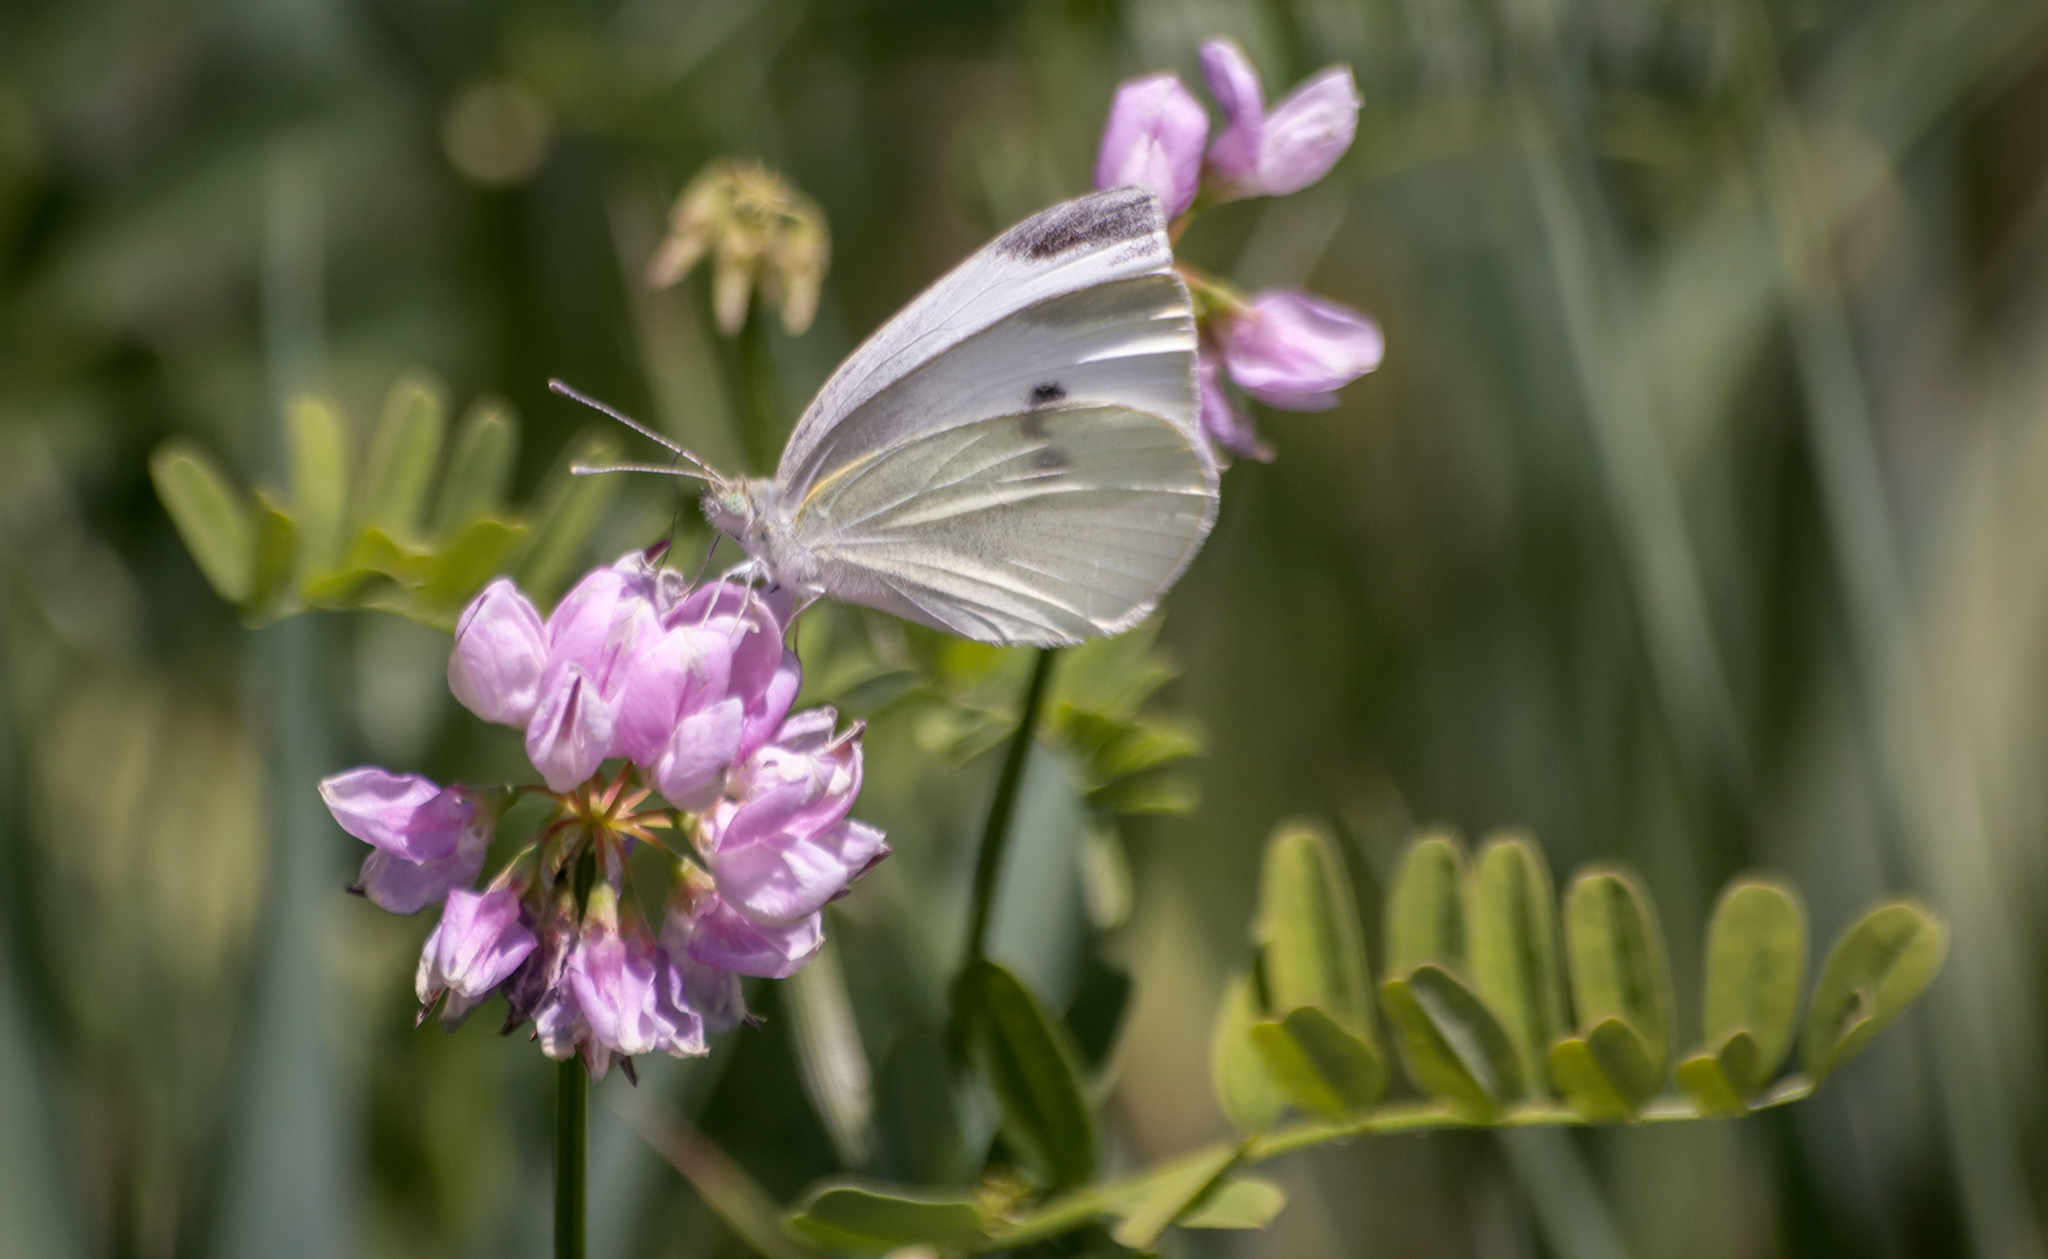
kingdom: Animalia
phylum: Arthropoda
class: Insecta
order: Lepidoptera
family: Pieridae
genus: Pieris
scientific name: Pieris rapae
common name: Small white
